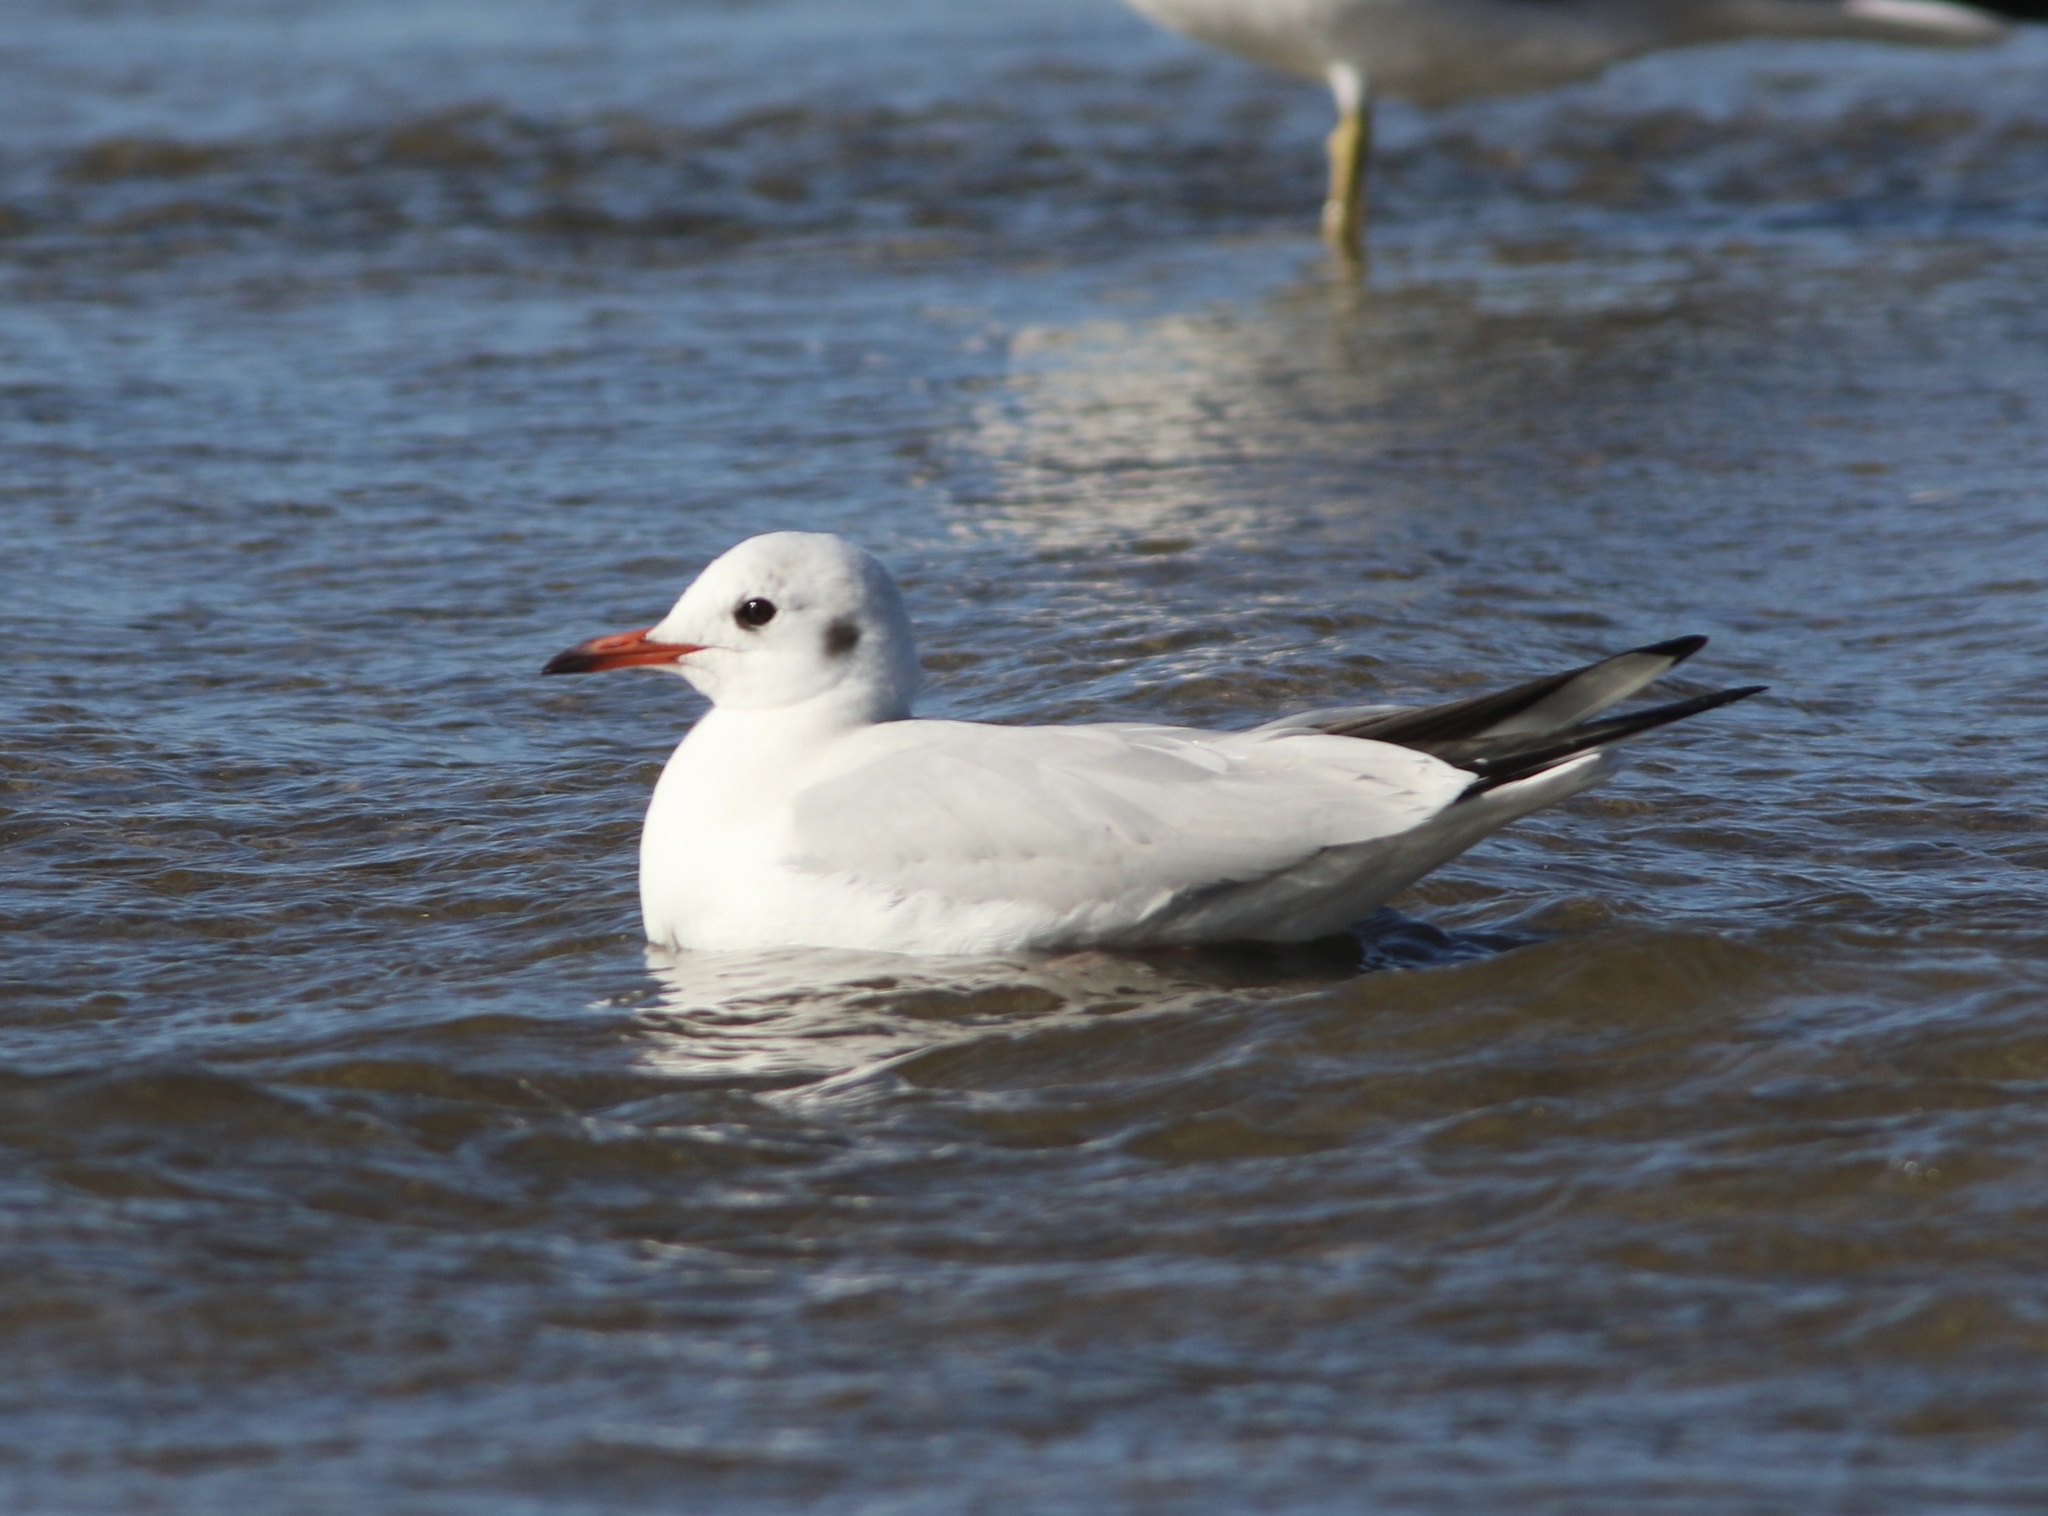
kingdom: Animalia
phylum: Chordata
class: Aves
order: Charadriiformes
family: Laridae
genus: Chroicocephalus
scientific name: Chroicocephalus ridibundus
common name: Black-headed gull
